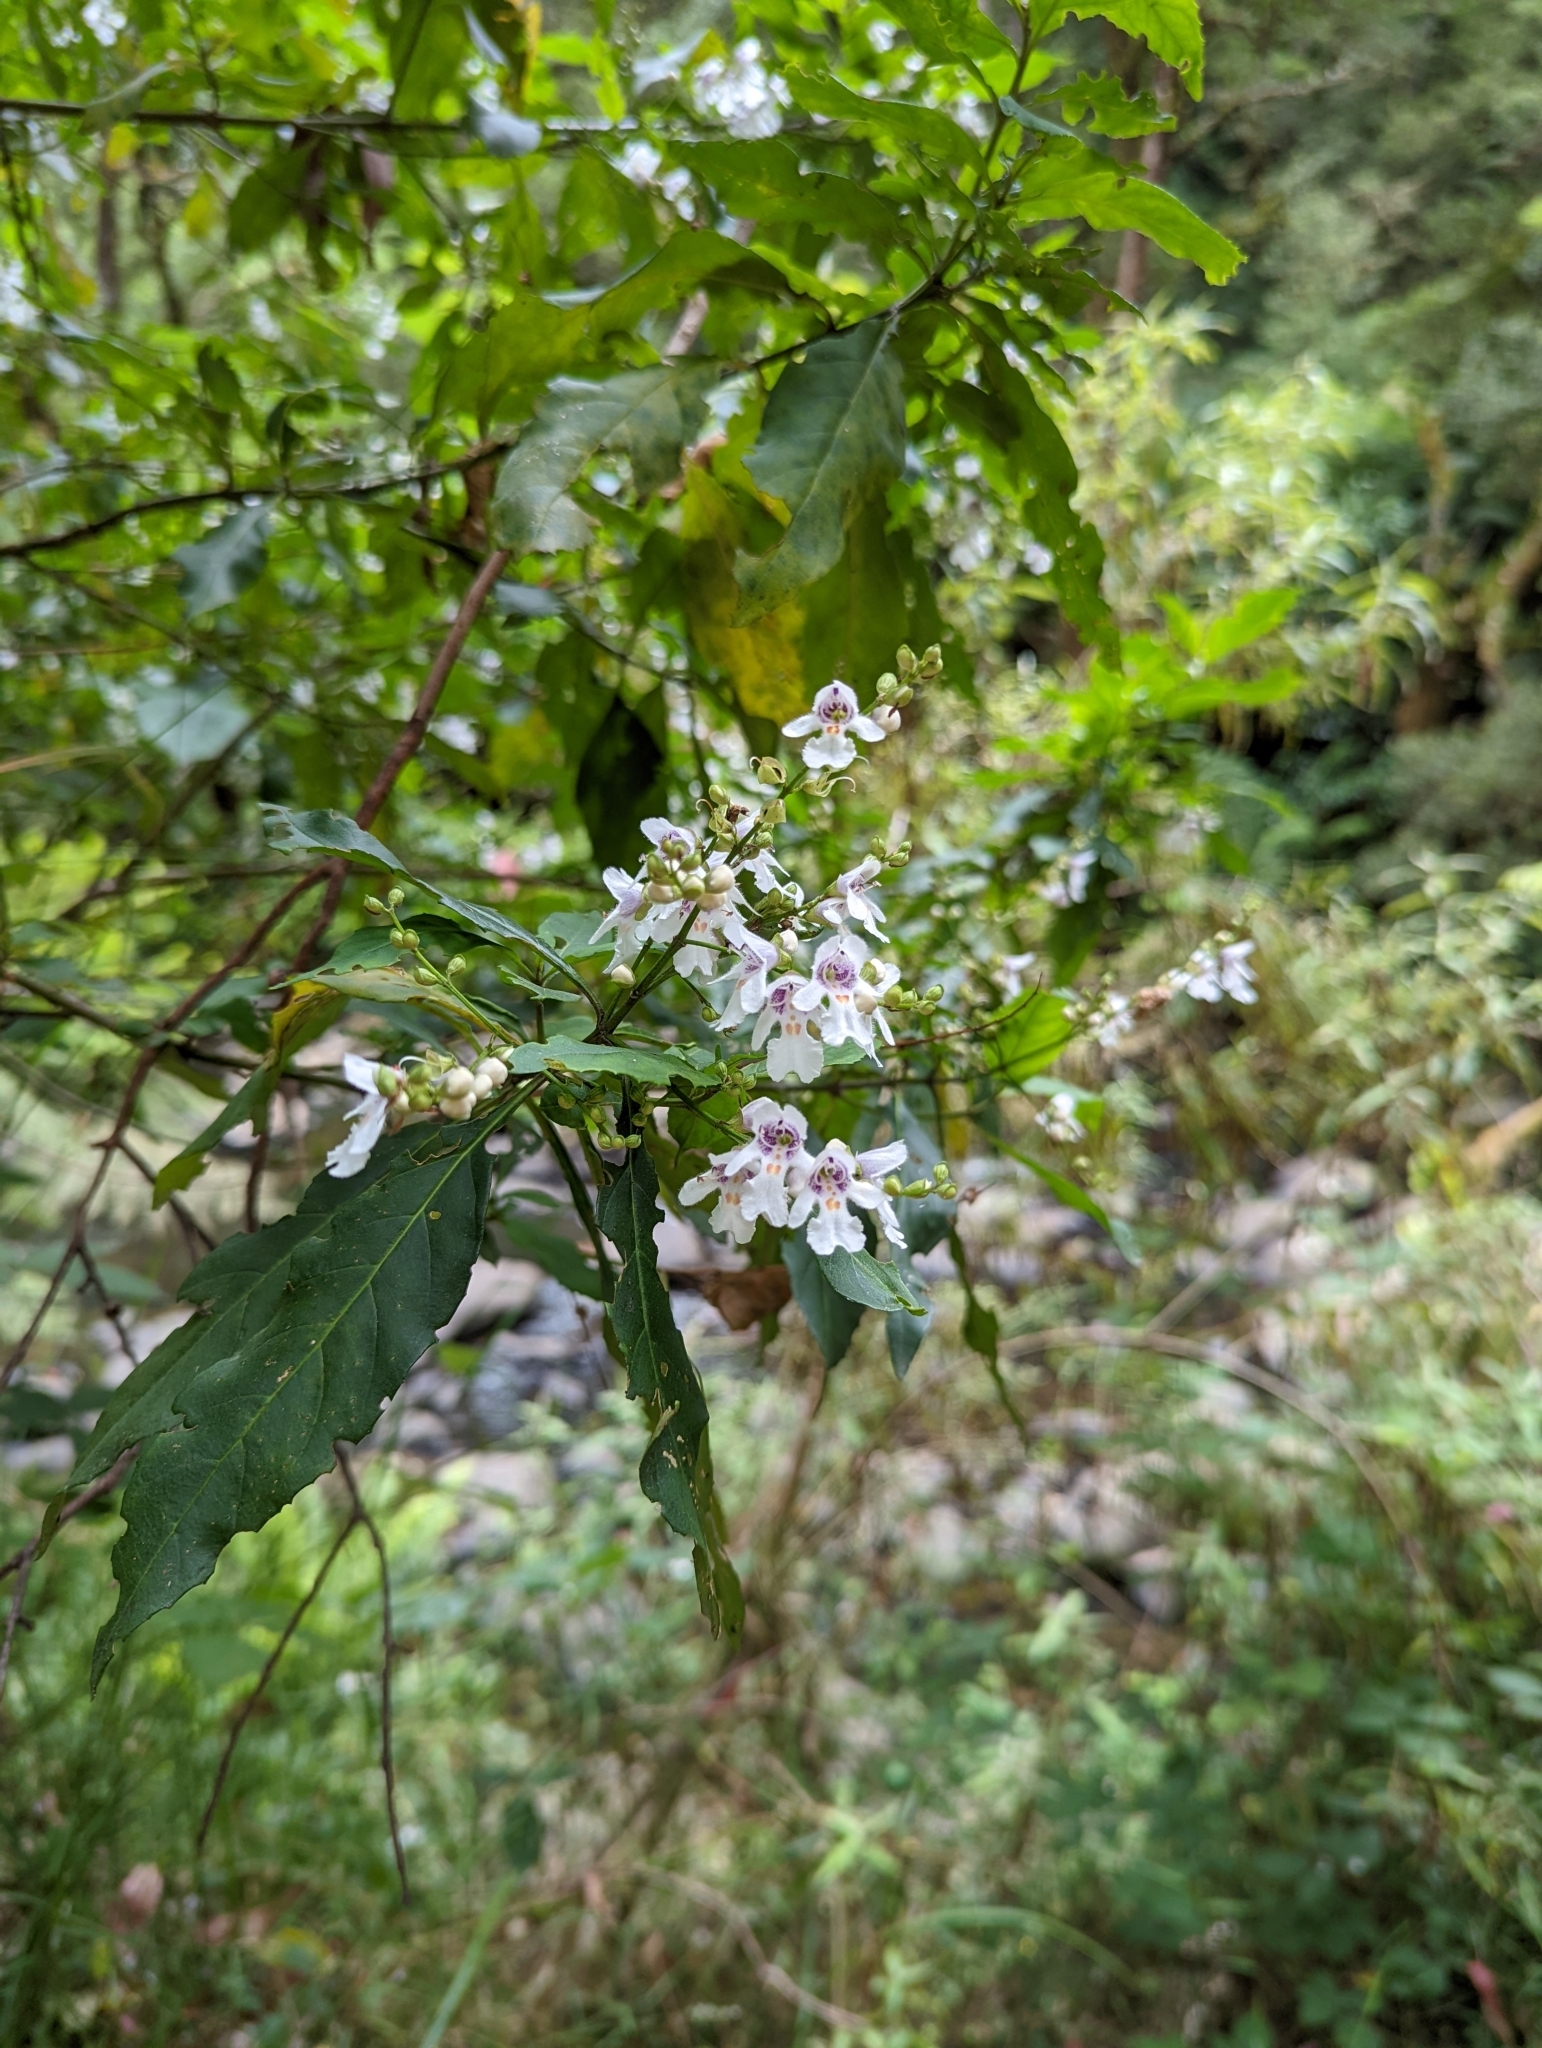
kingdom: Plantae
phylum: Tracheophyta
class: Magnoliopsida
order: Lamiales
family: Lamiaceae
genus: Prostanthera
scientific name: Prostanthera lasianthos
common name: Mountain-lilac
